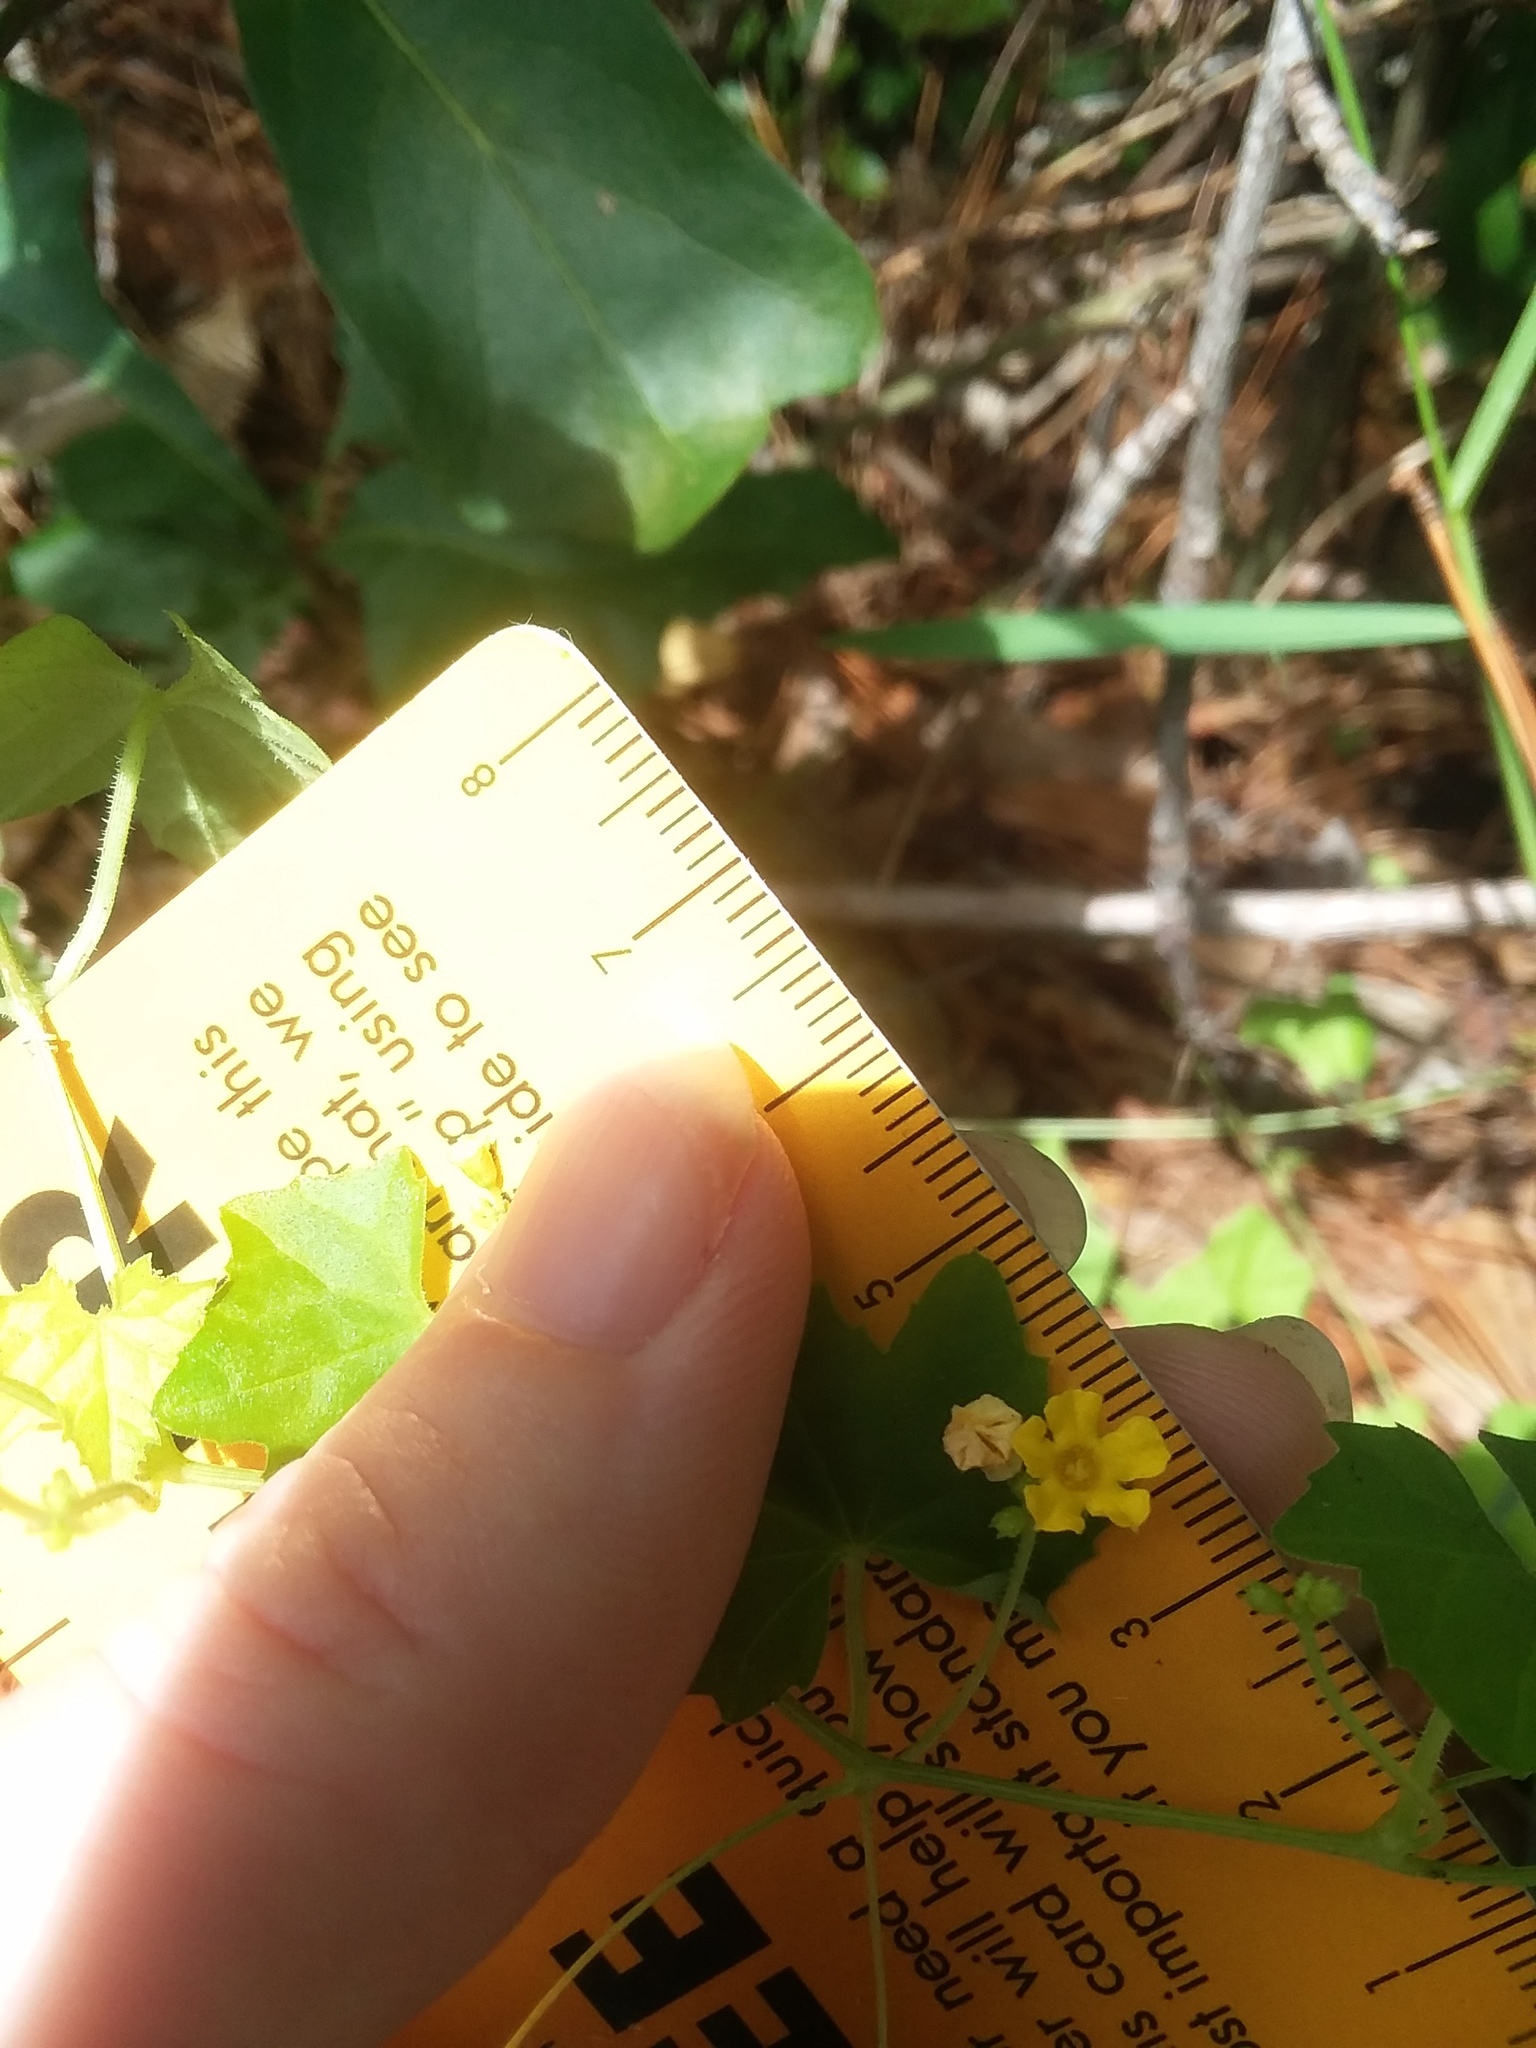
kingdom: Plantae
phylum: Tracheophyta
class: Magnoliopsida
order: Cucurbitales
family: Cucurbitaceae
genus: Melothria
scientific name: Melothria pendula
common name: Creeping-cucumber
